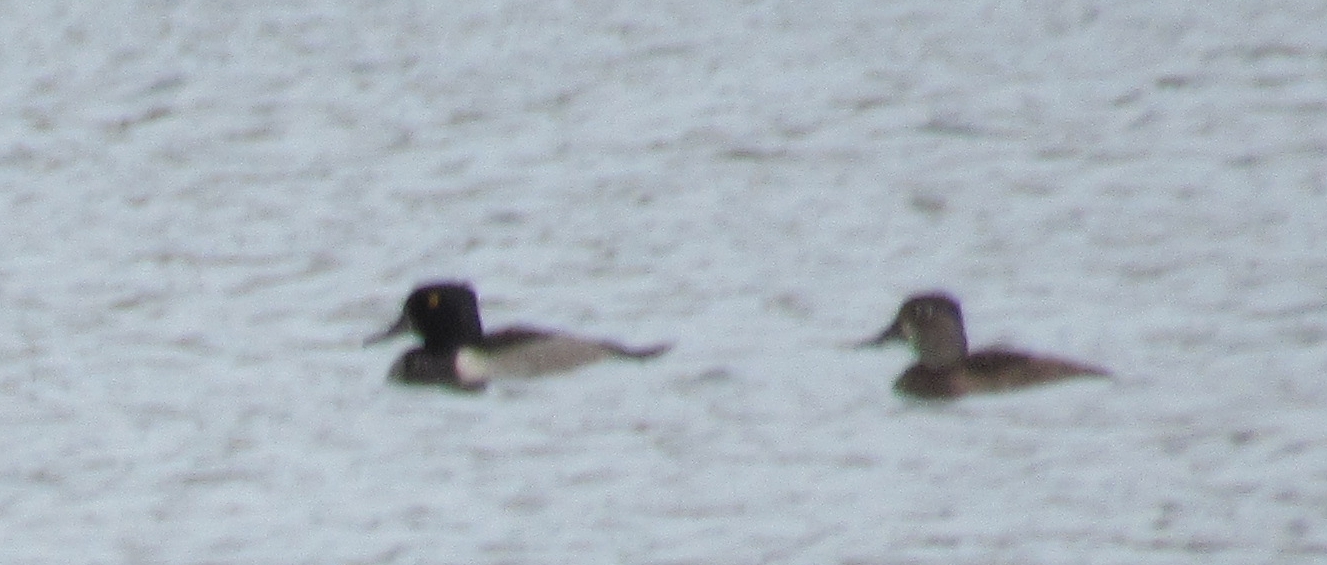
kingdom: Animalia
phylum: Chordata
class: Aves
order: Anseriformes
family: Anatidae
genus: Aythya
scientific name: Aythya collaris
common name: Ring-necked duck
